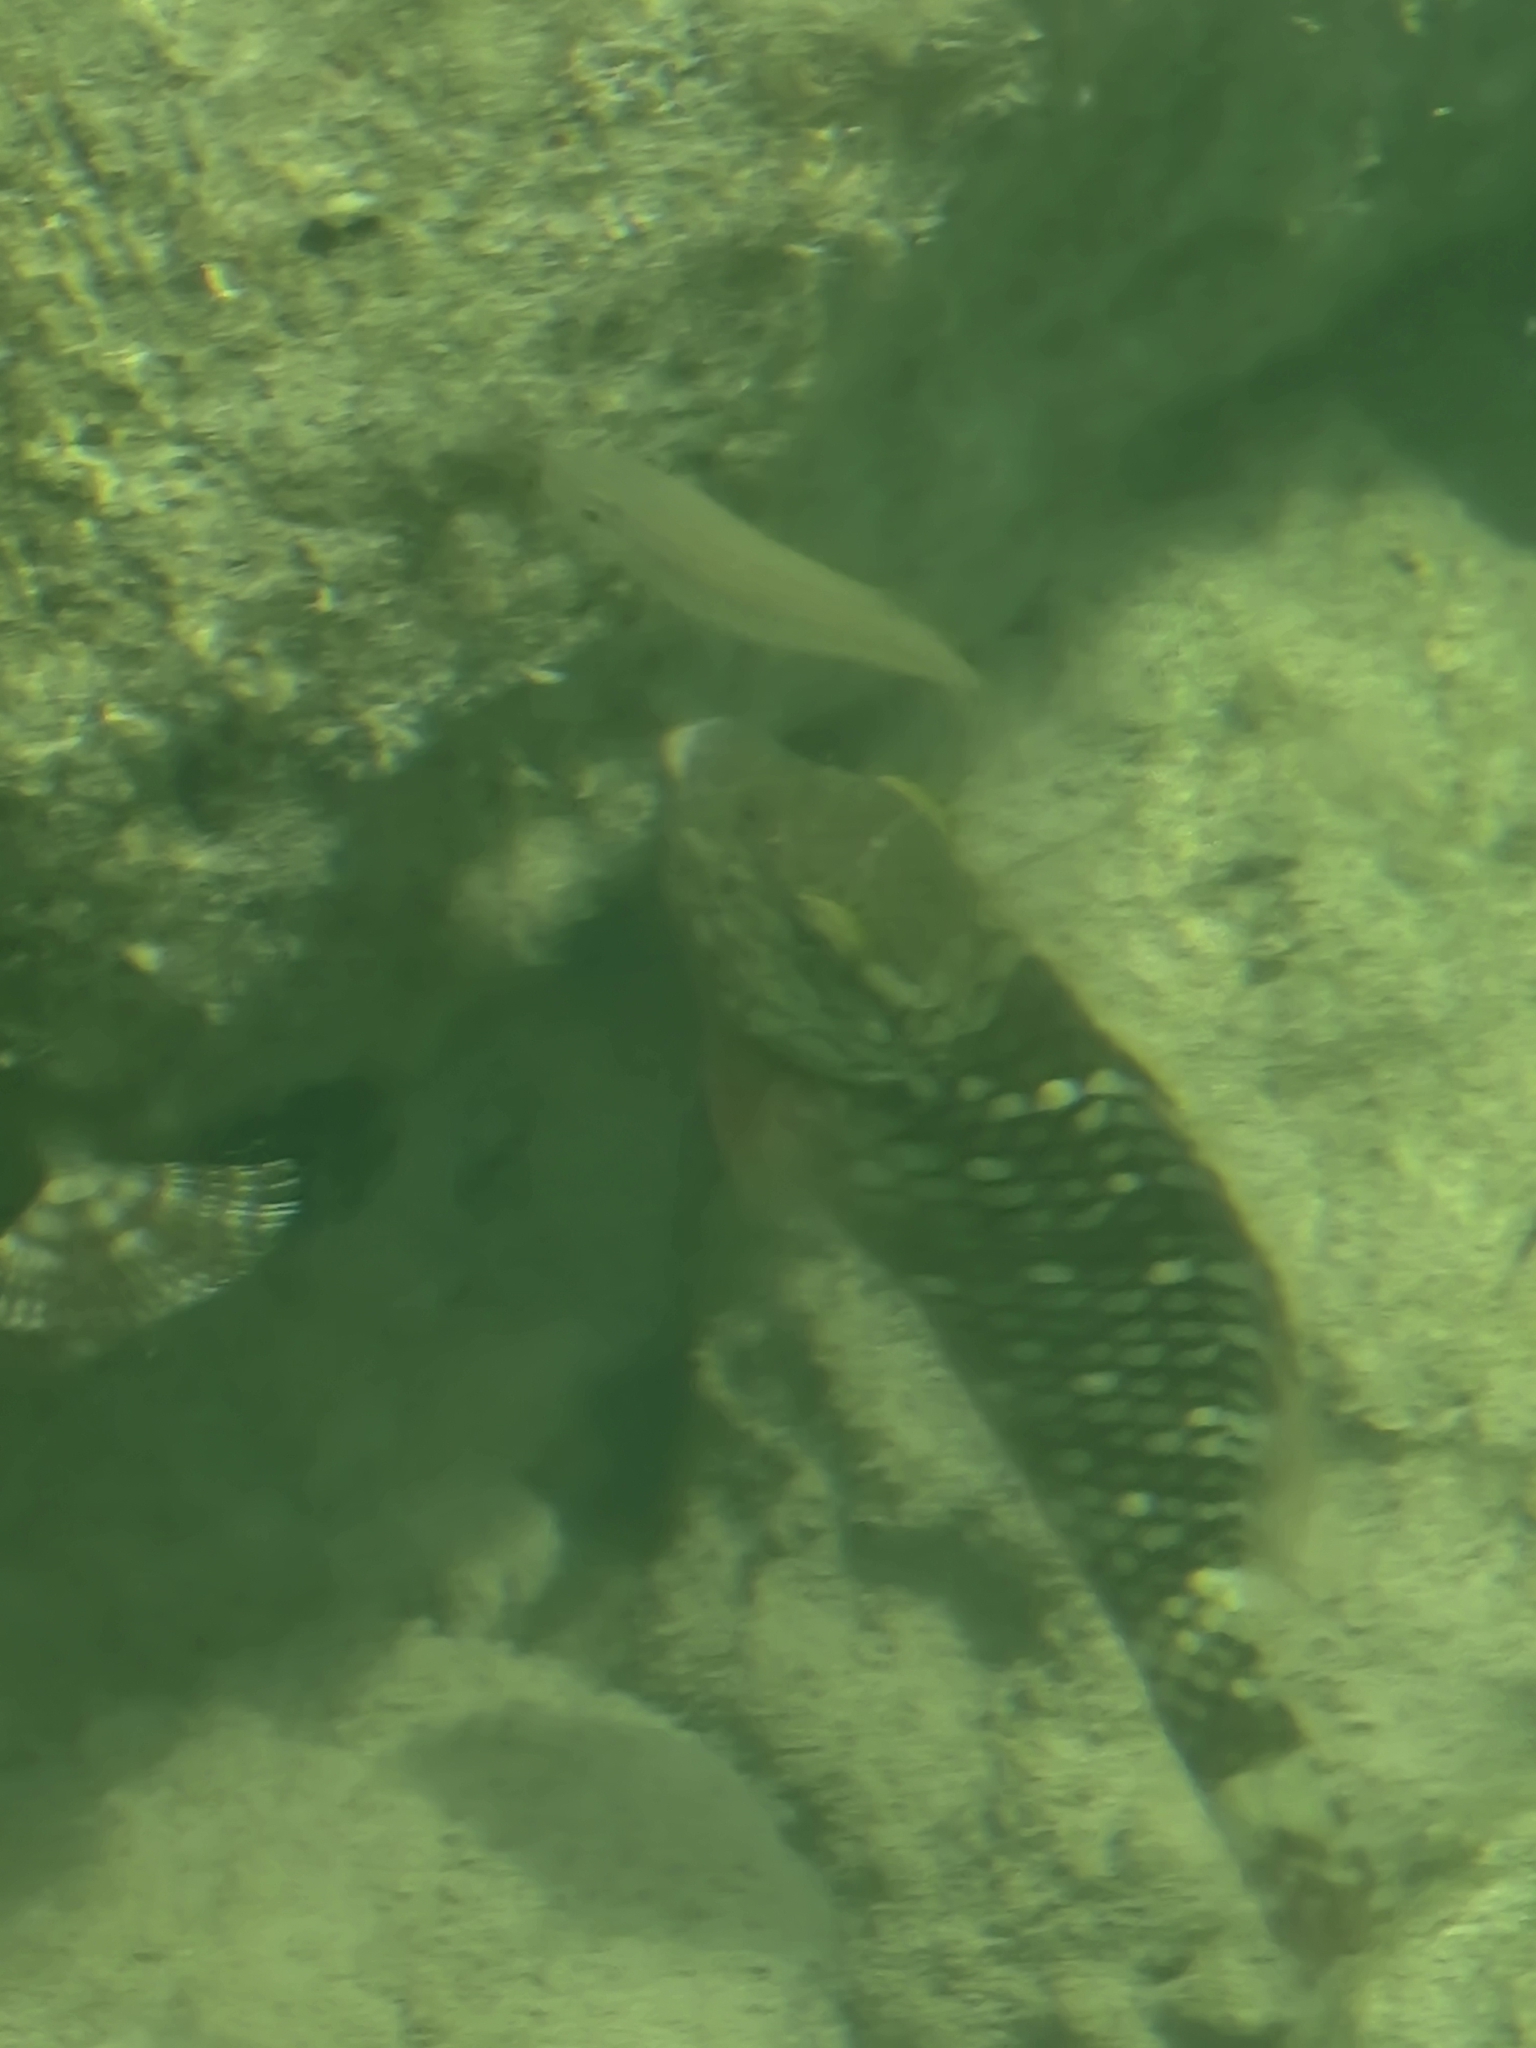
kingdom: Animalia
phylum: Chordata
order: Perciformes
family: Scaridae
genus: Sparisoma
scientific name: Sparisoma viride
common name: Stoplight parrotfish
